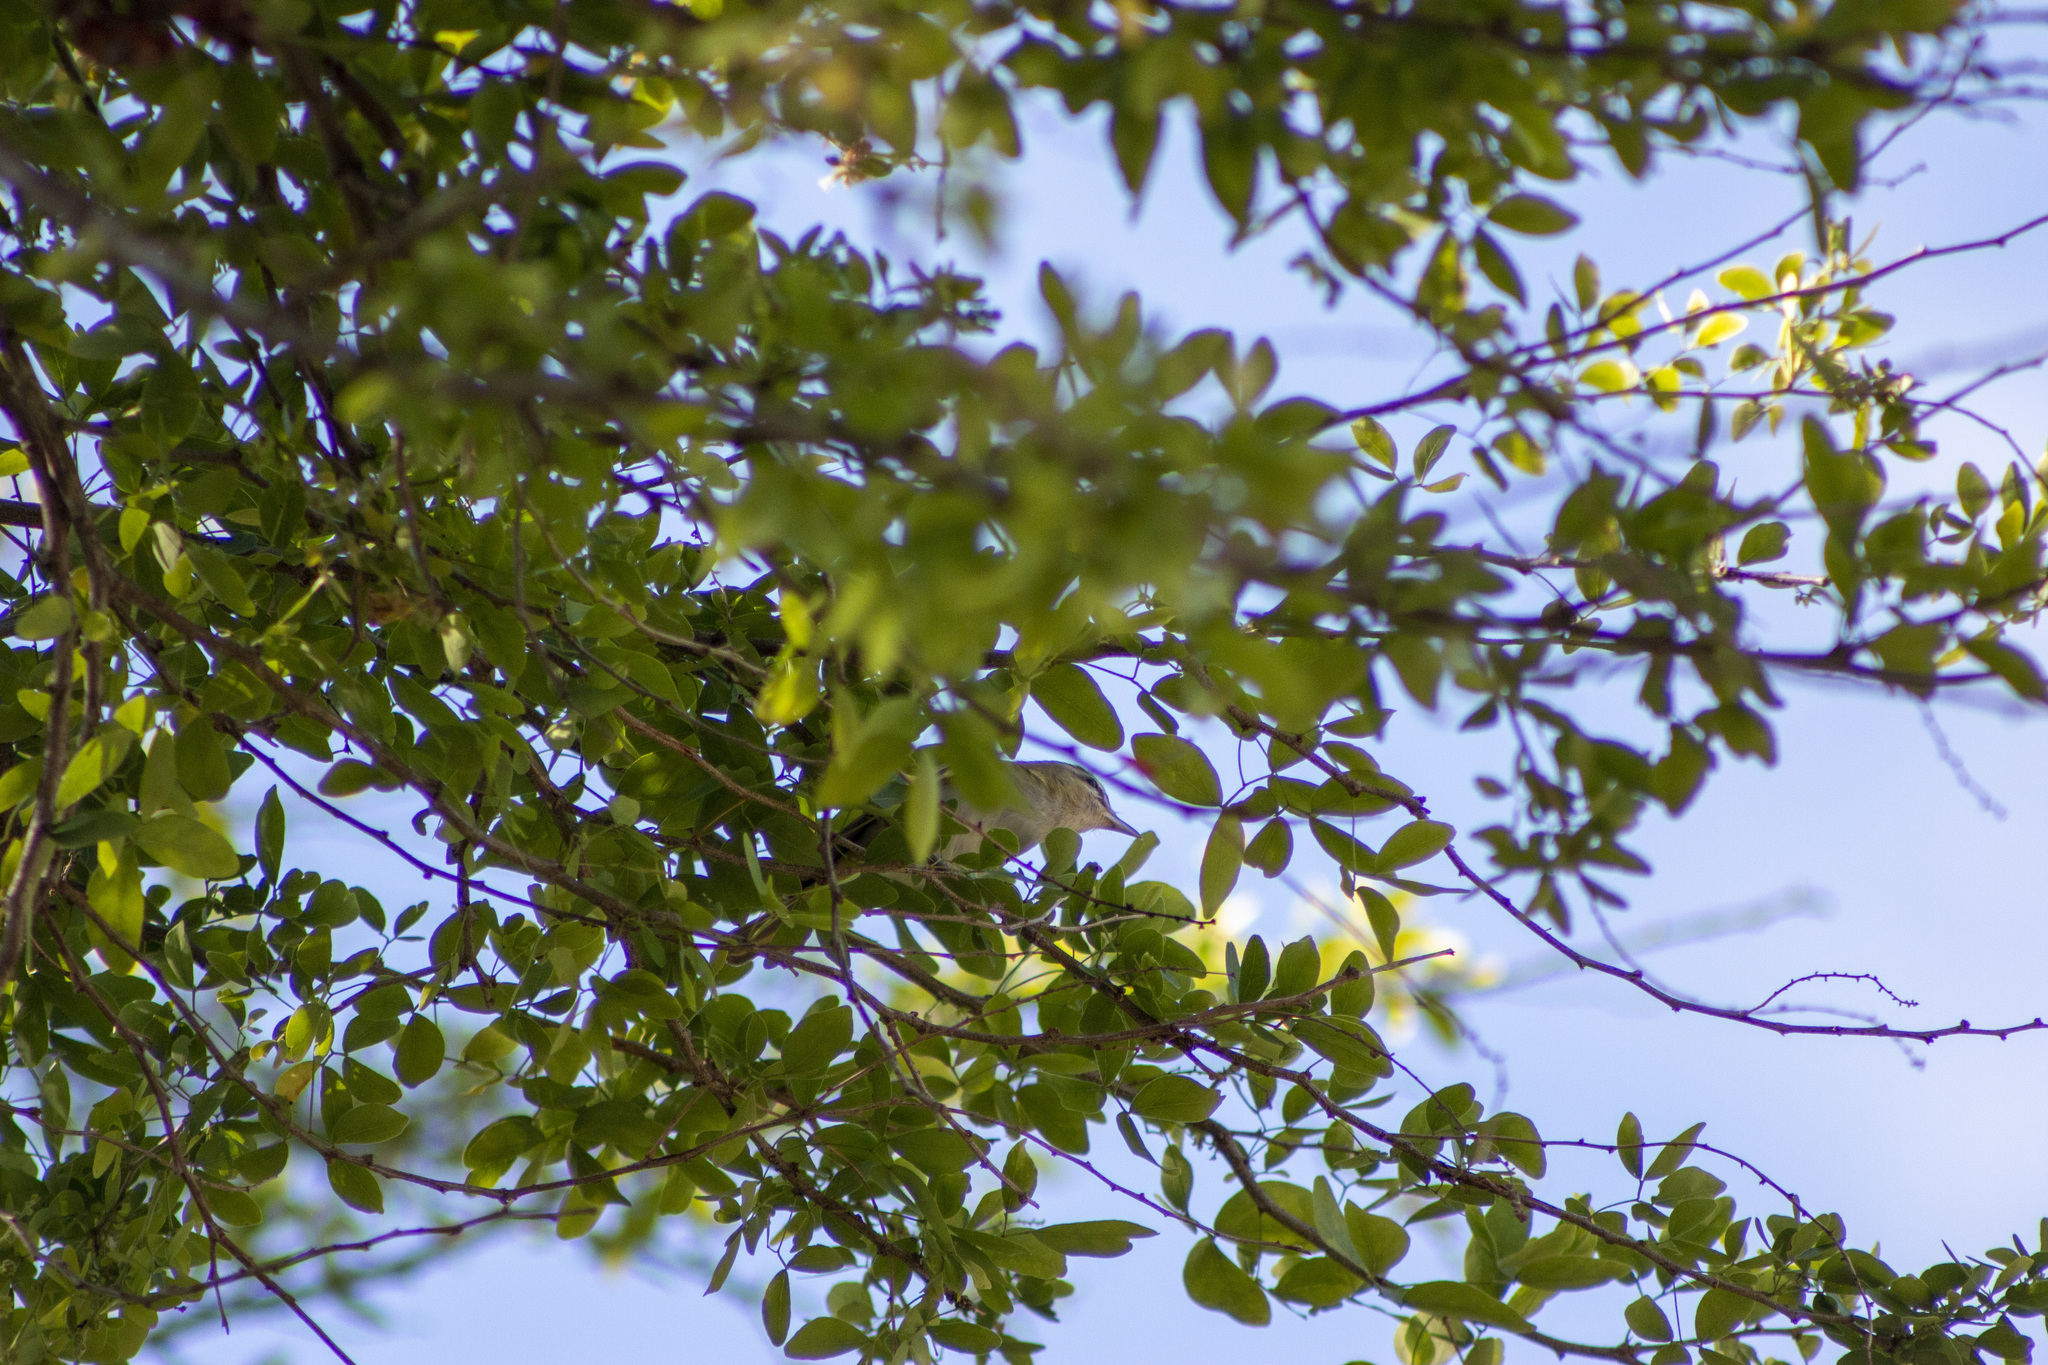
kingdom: Animalia
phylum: Chordata
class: Aves
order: Passeriformes
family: Vireonidae
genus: Vireo
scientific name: Vireo olivaceus
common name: Red-eyed vireo
